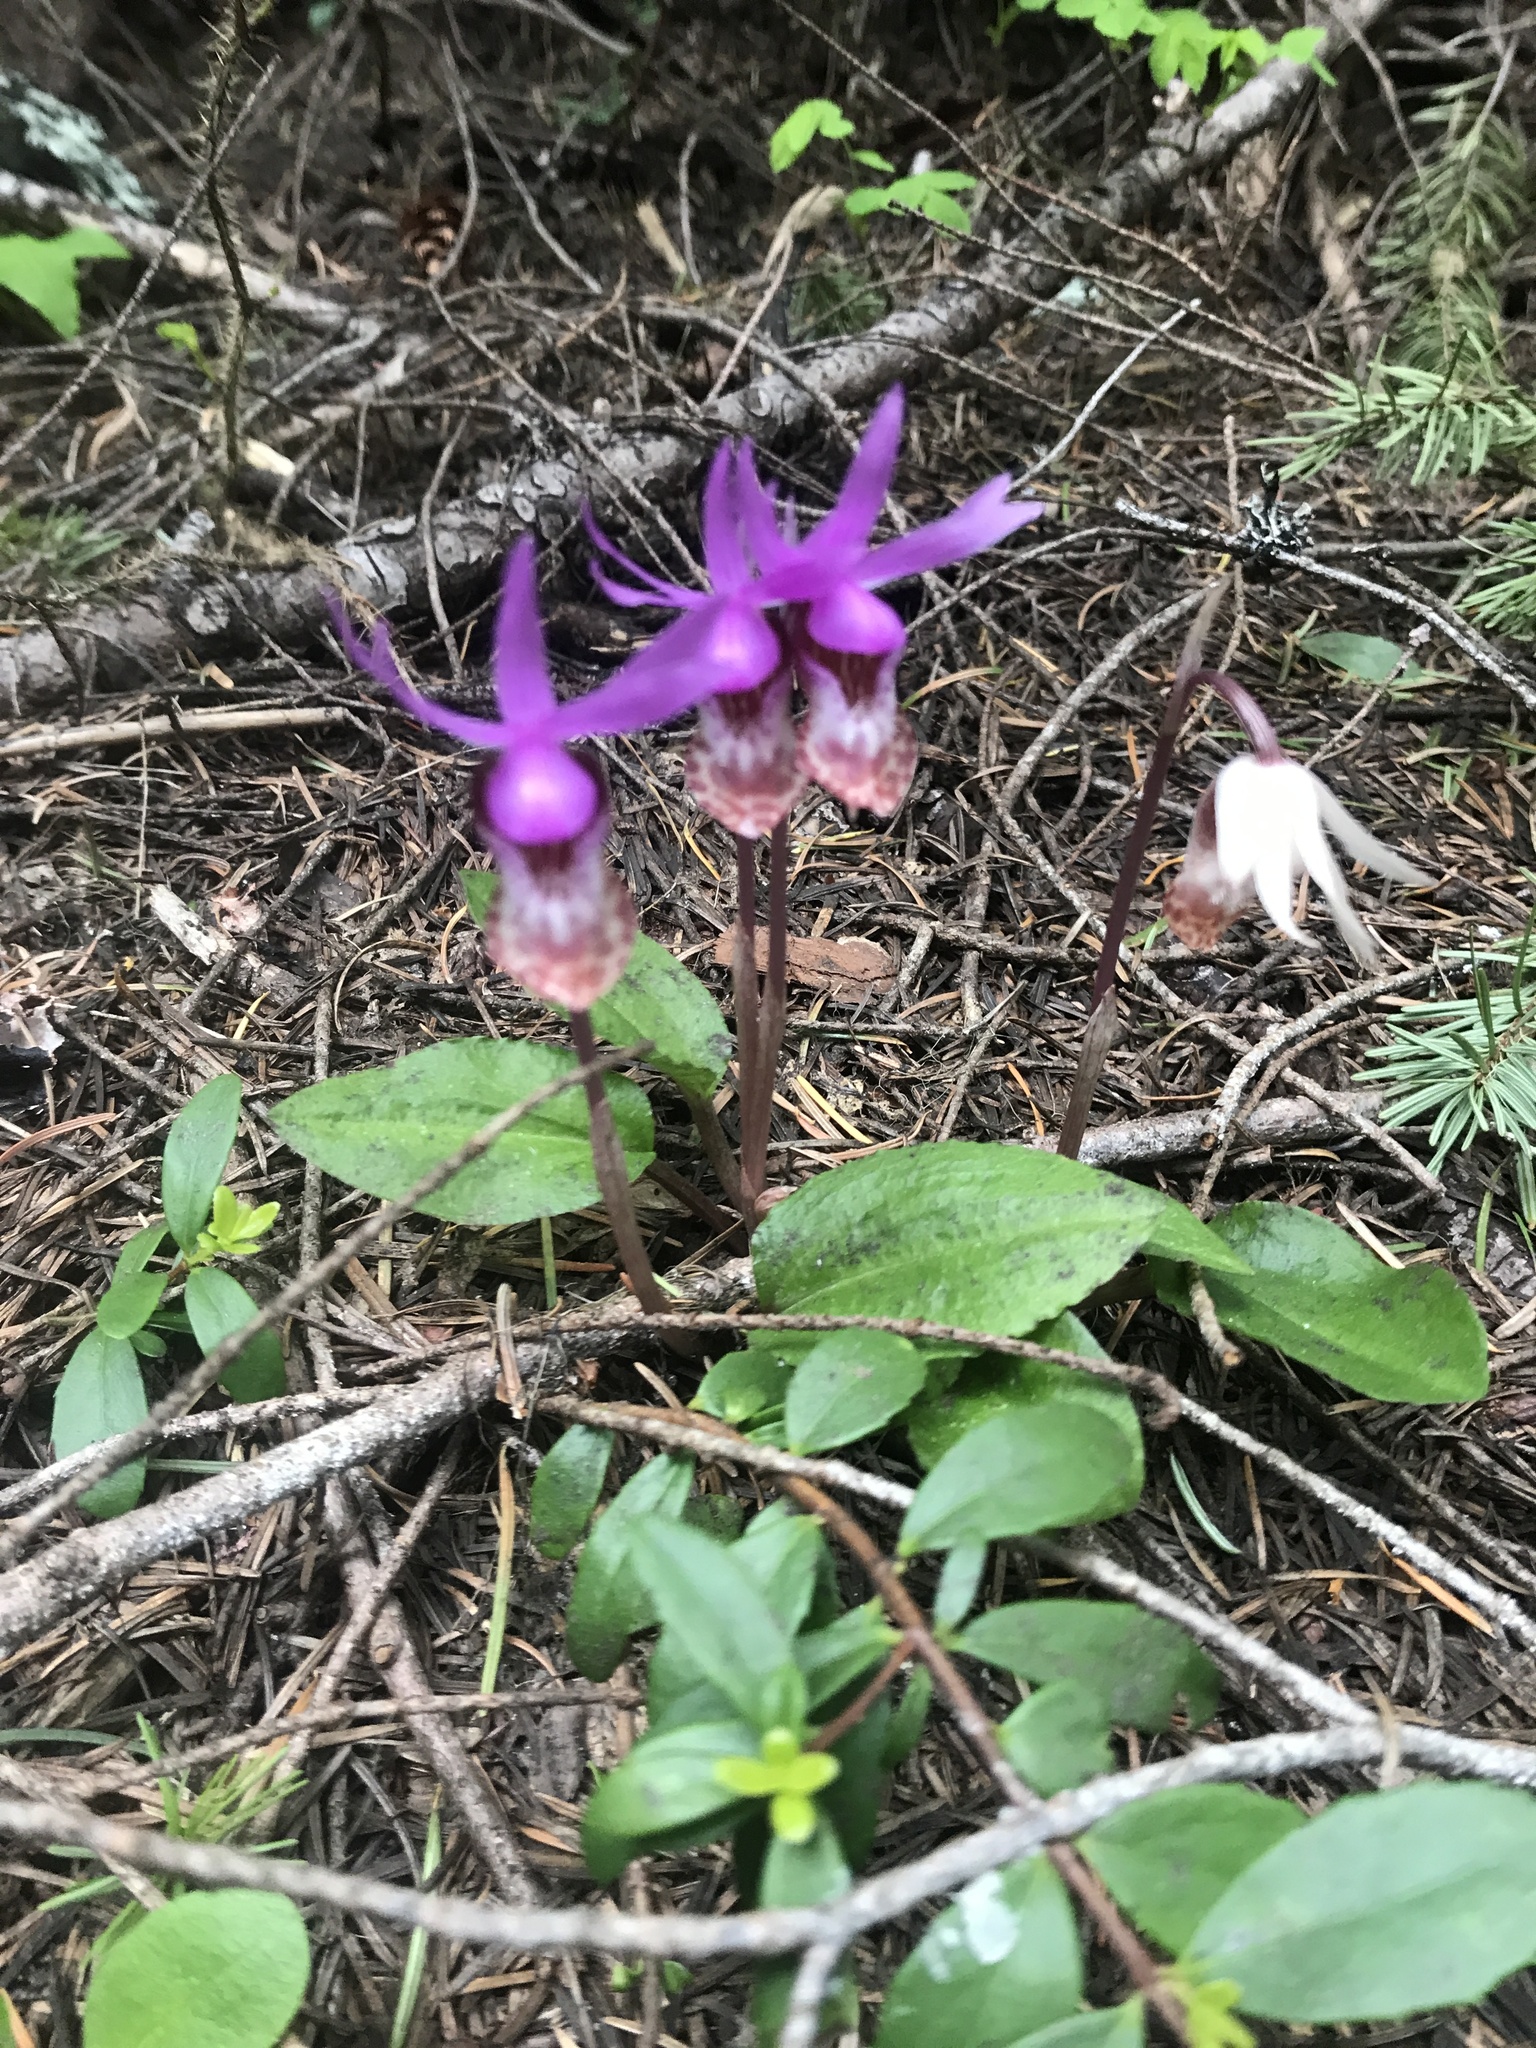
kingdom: Plantae
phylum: Tracheophyta
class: Liliopsida
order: Asparagales
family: Orchidaceae
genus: Calypso
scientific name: Calypso bulbosa
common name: Calypso
